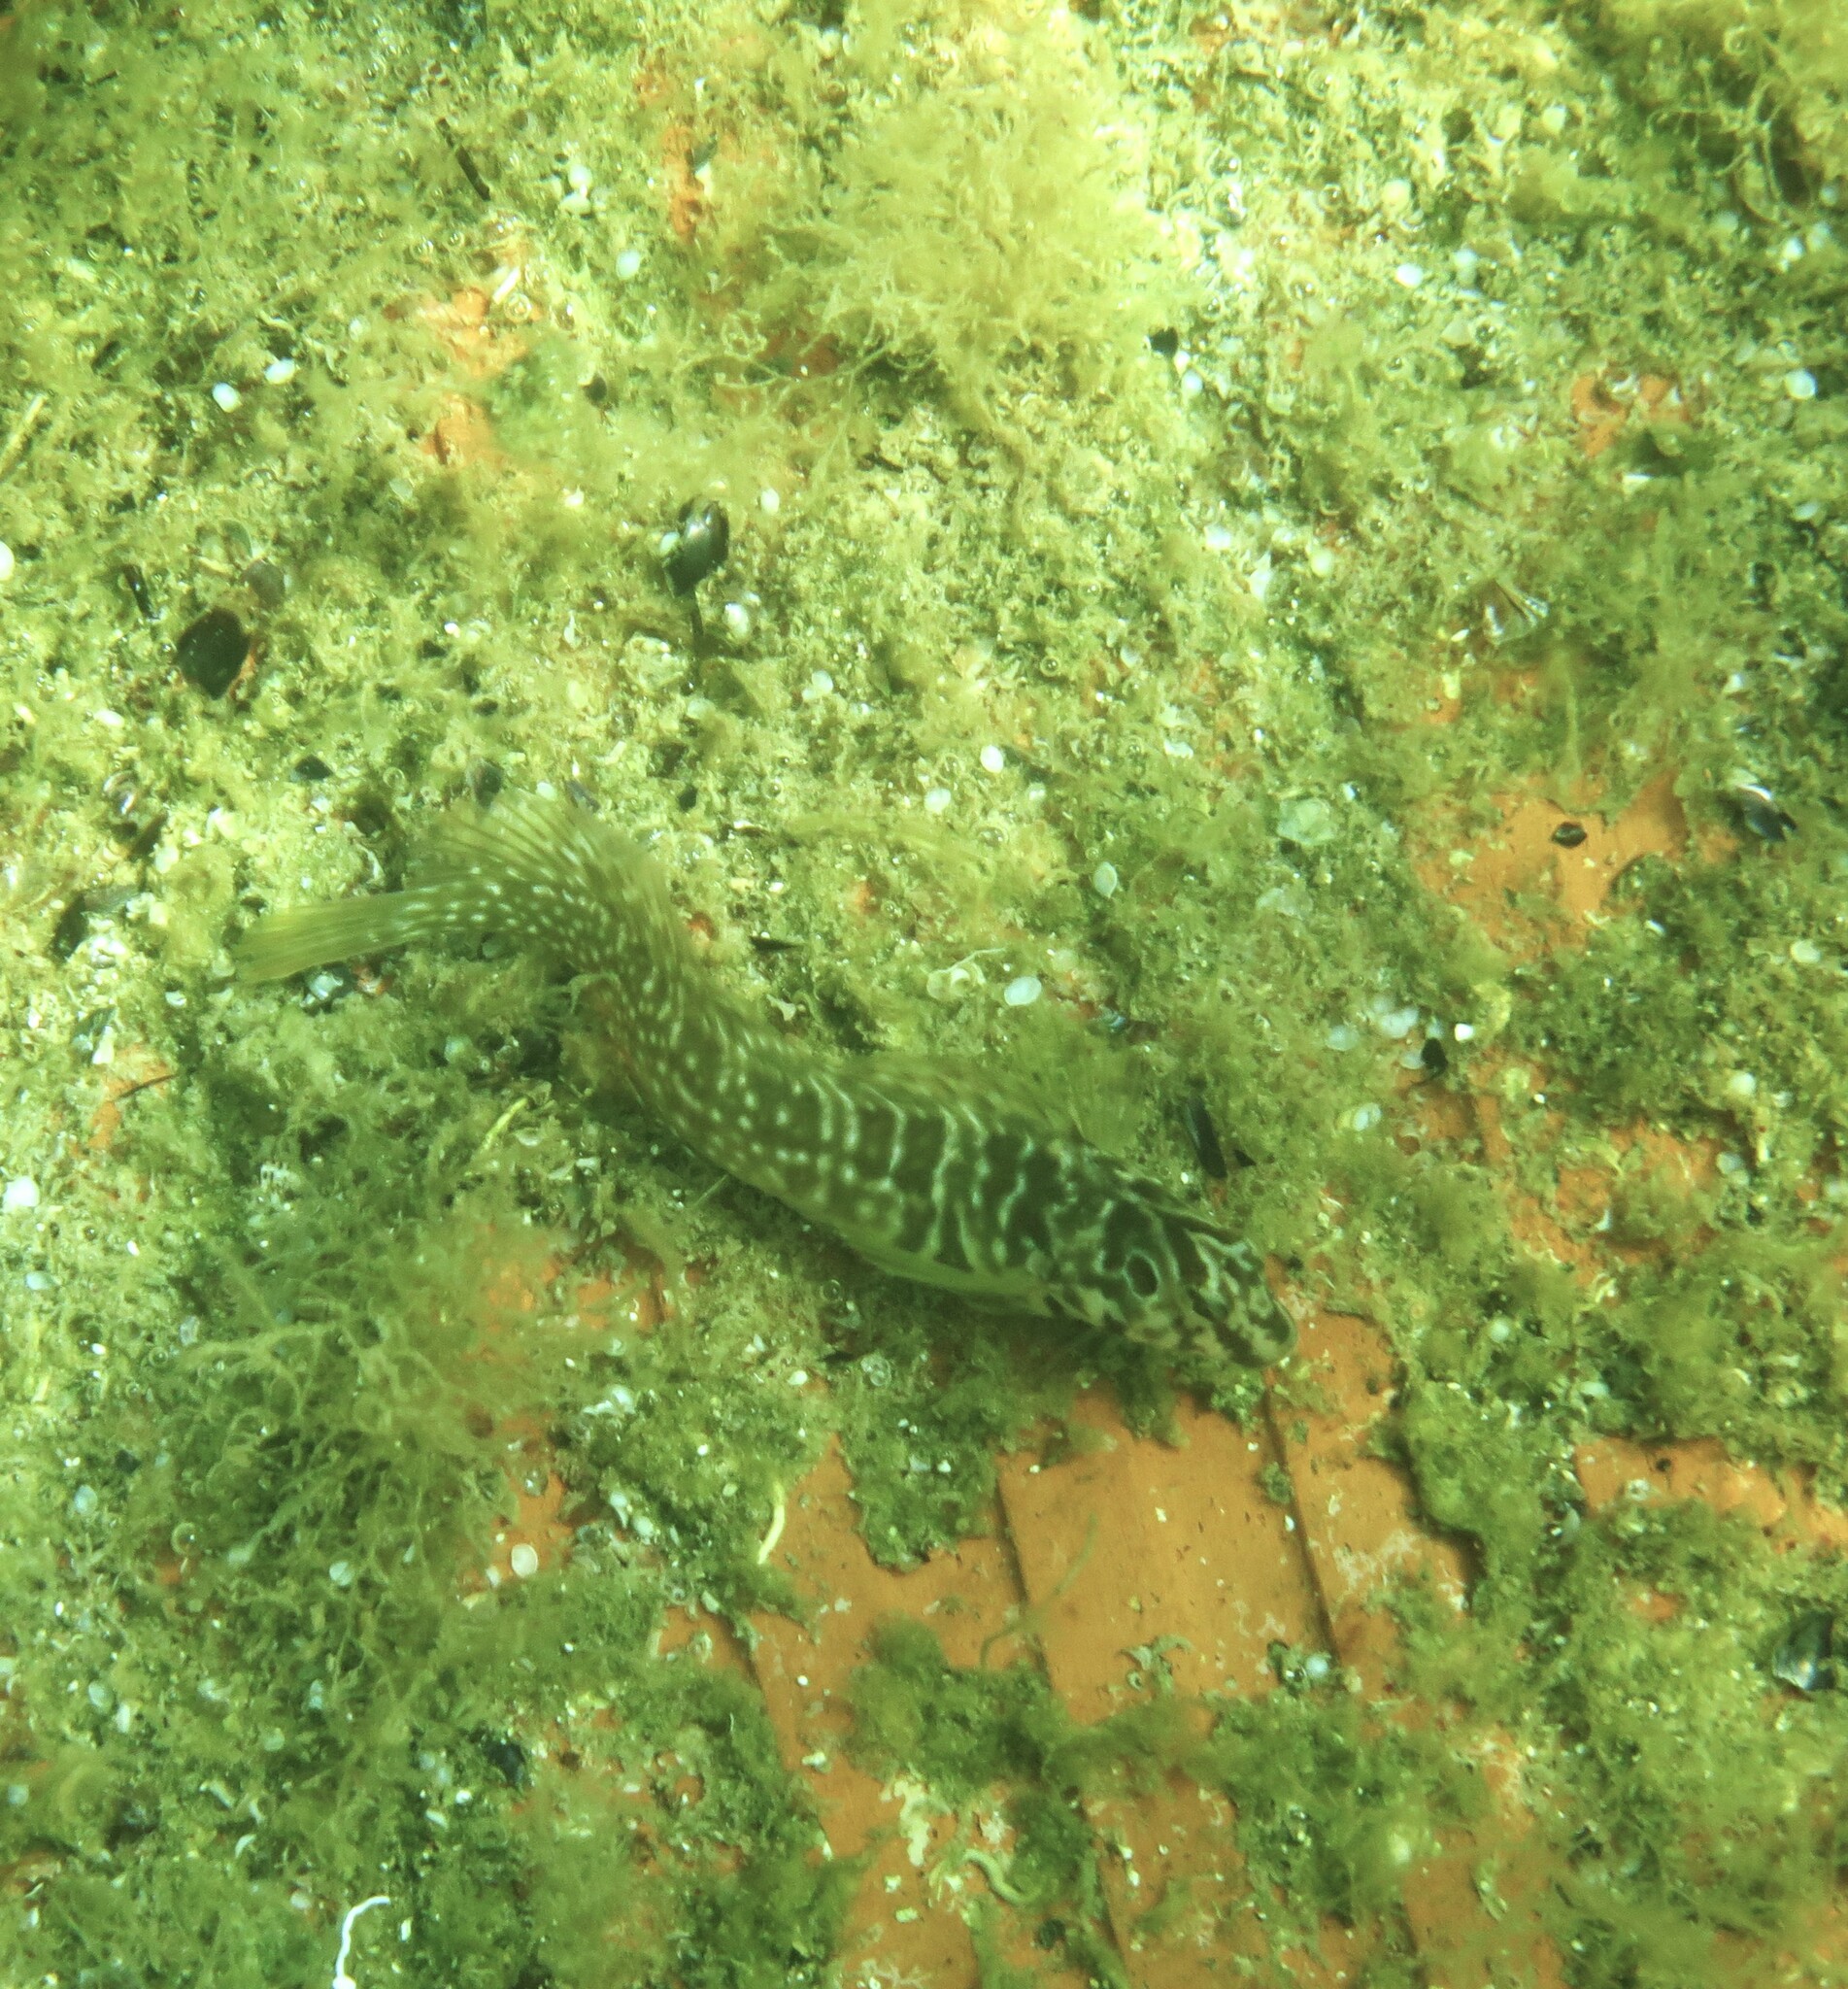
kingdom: Animalia
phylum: Chordata
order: Perciformes
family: Blenniidae
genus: Salaria
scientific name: Salaria pavo
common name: Peacock blenny
